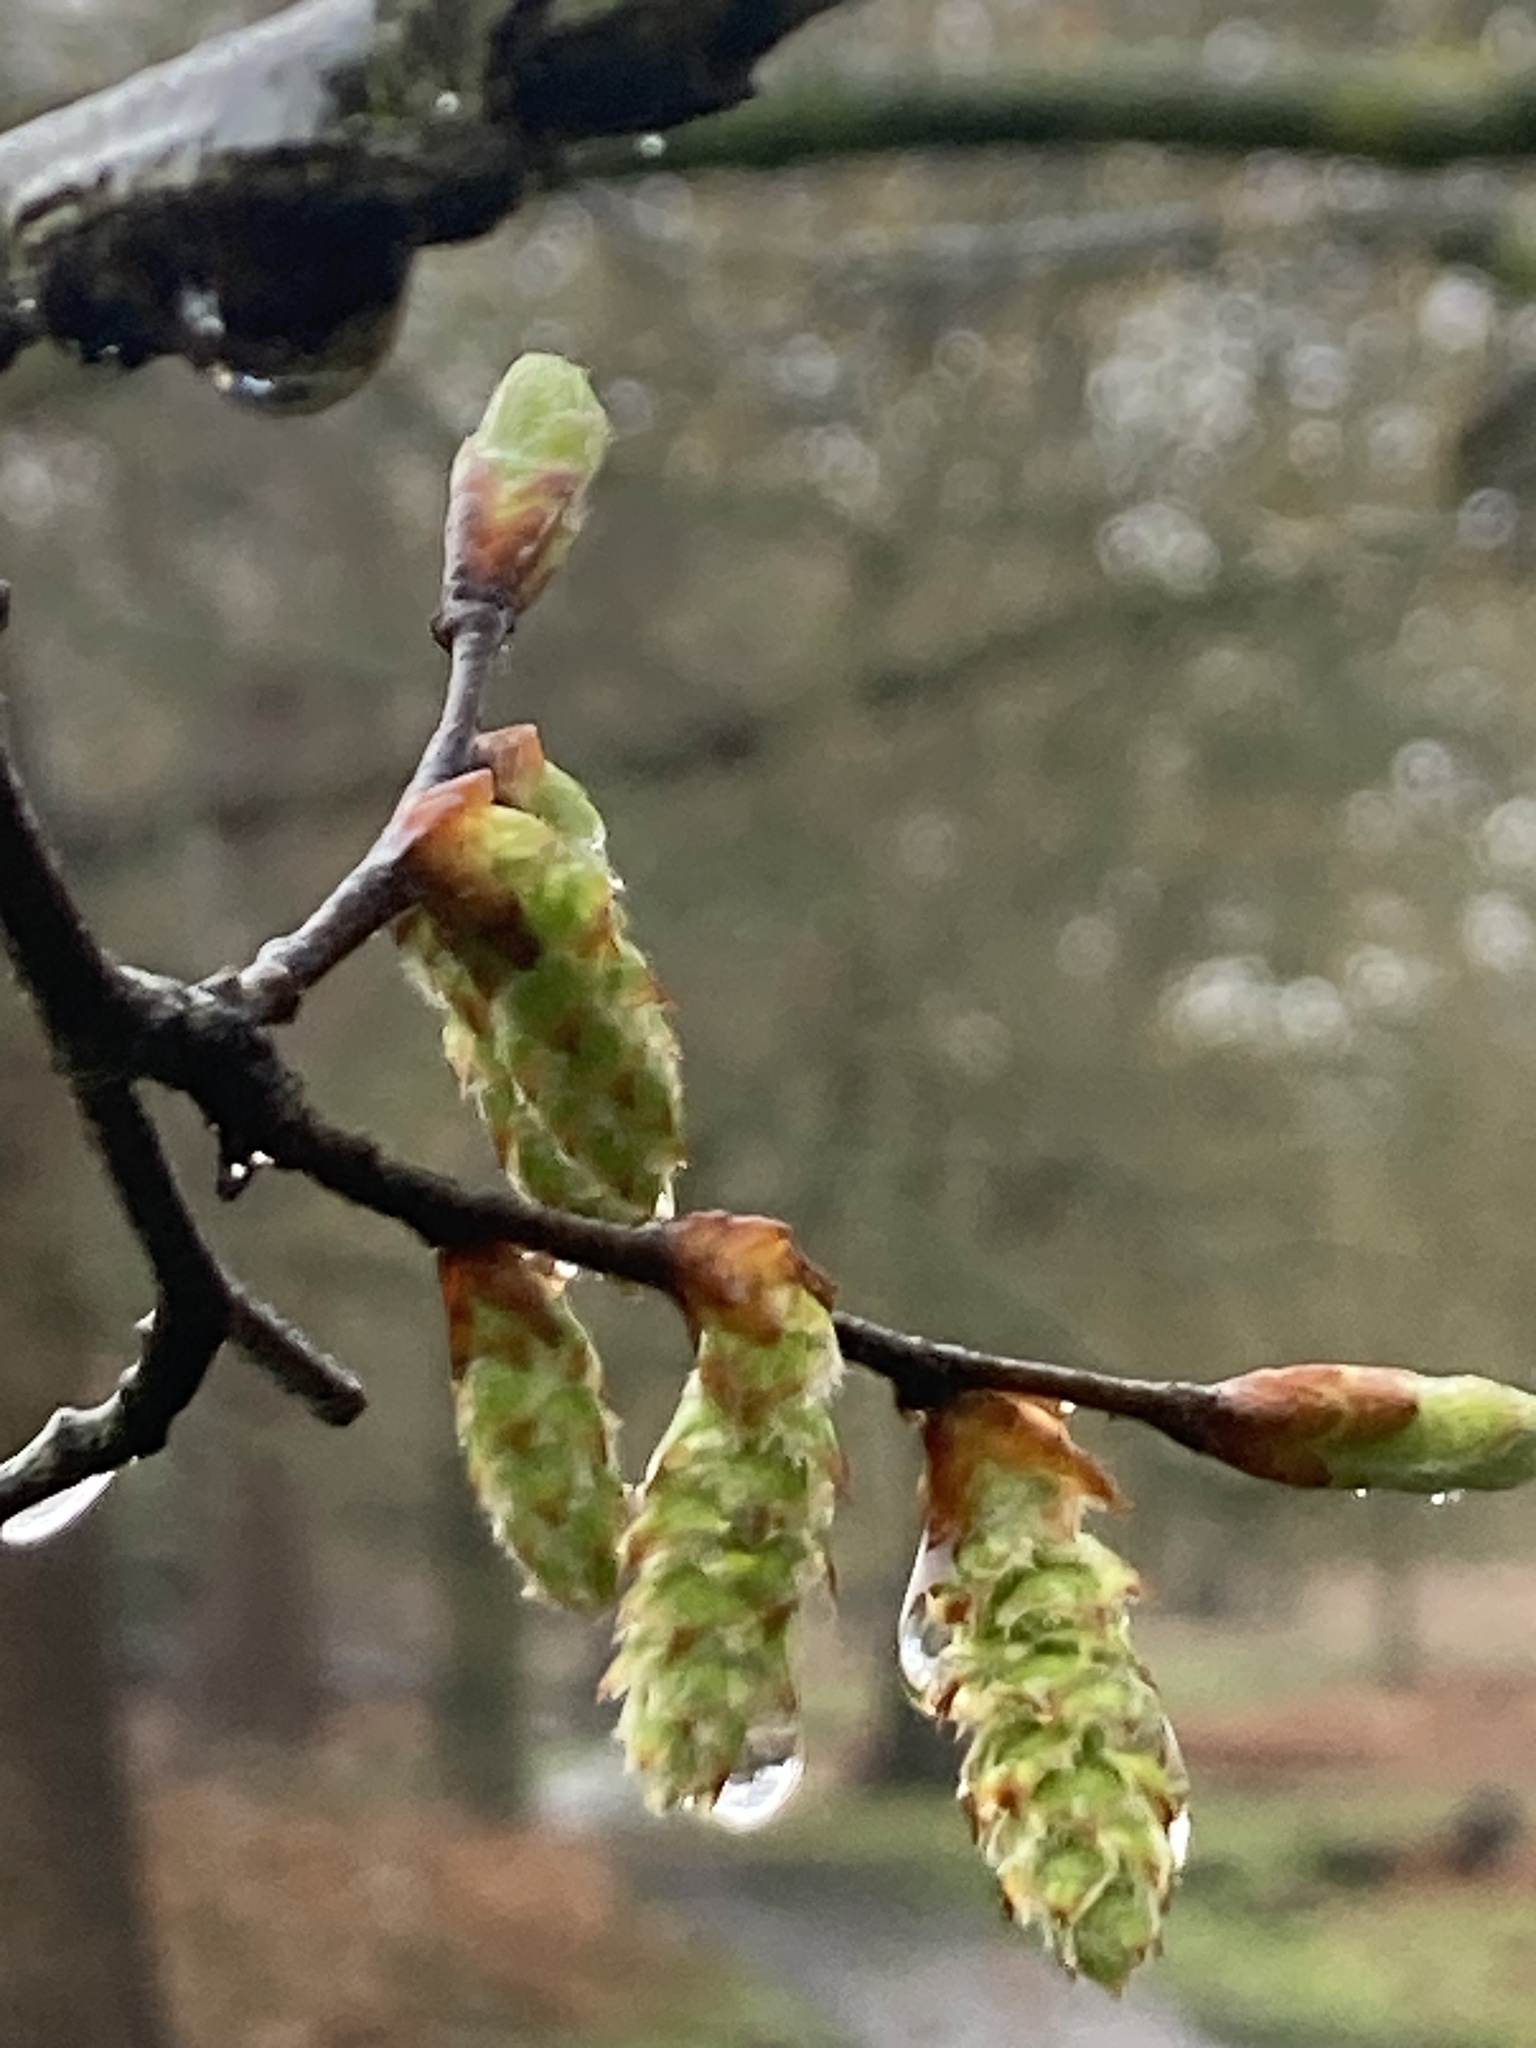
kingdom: Plantae
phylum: Tracheophyta
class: Magnoliopsida
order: Fagales
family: Betulaceae
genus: Carpinus
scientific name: Carpinus betulus
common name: Hornbeam
